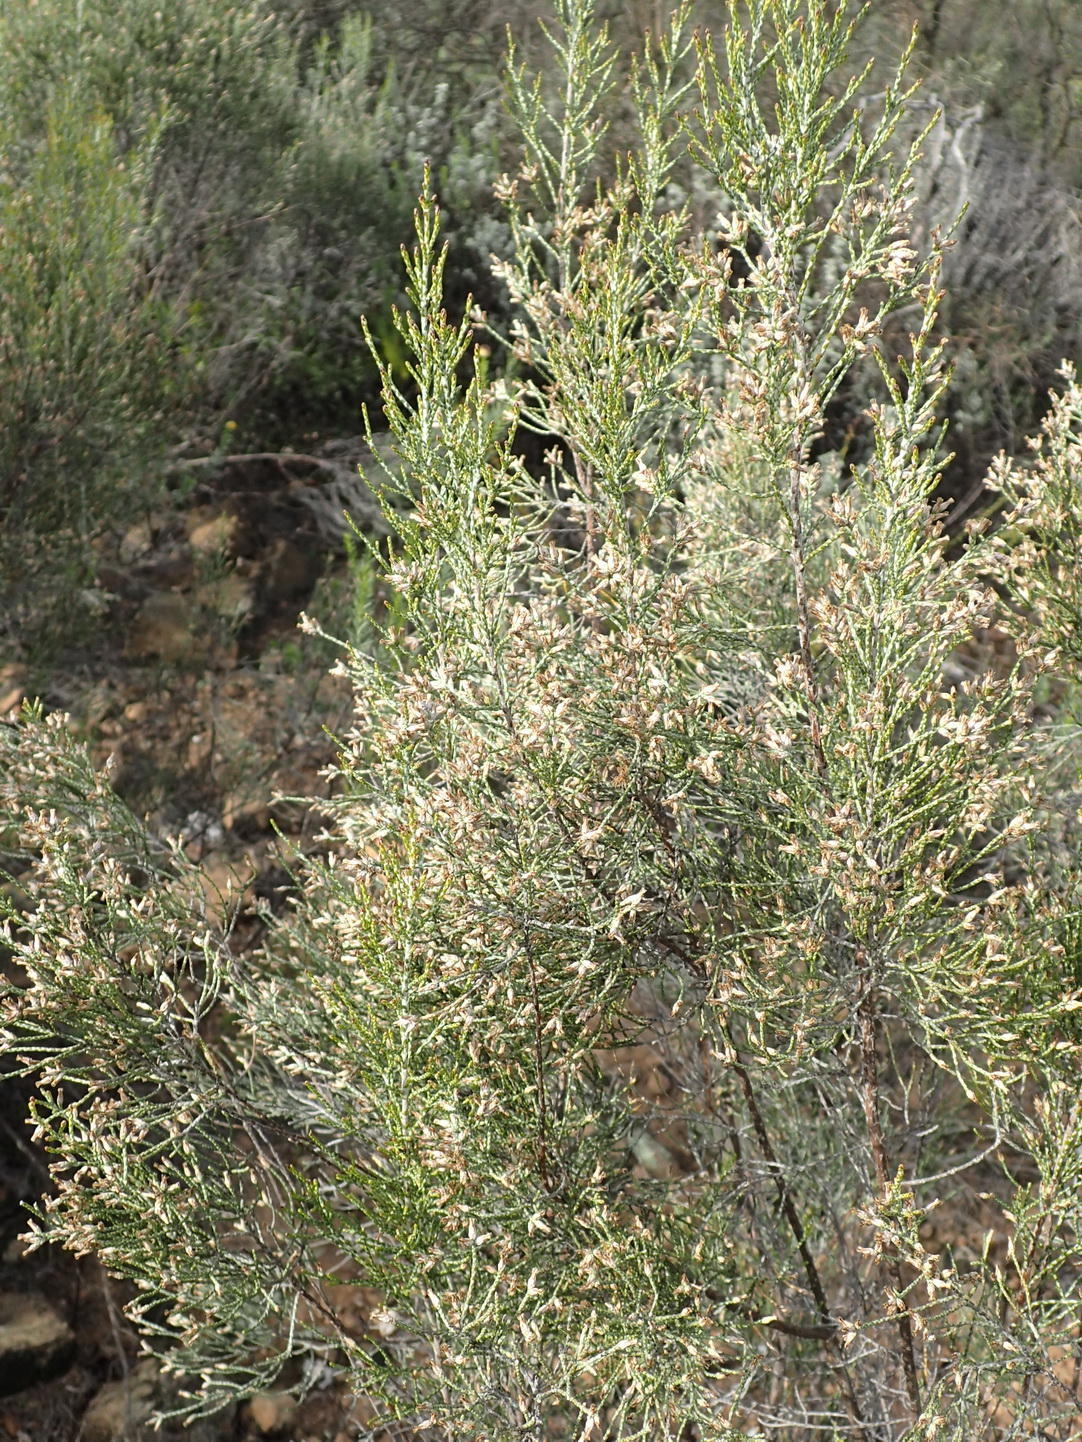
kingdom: Plantae
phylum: Tracheophyta
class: Magnoliopsida
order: Asterales
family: Asteraceae
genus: Dicerothamnus
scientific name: Dicerothamnus rhinocerotis
